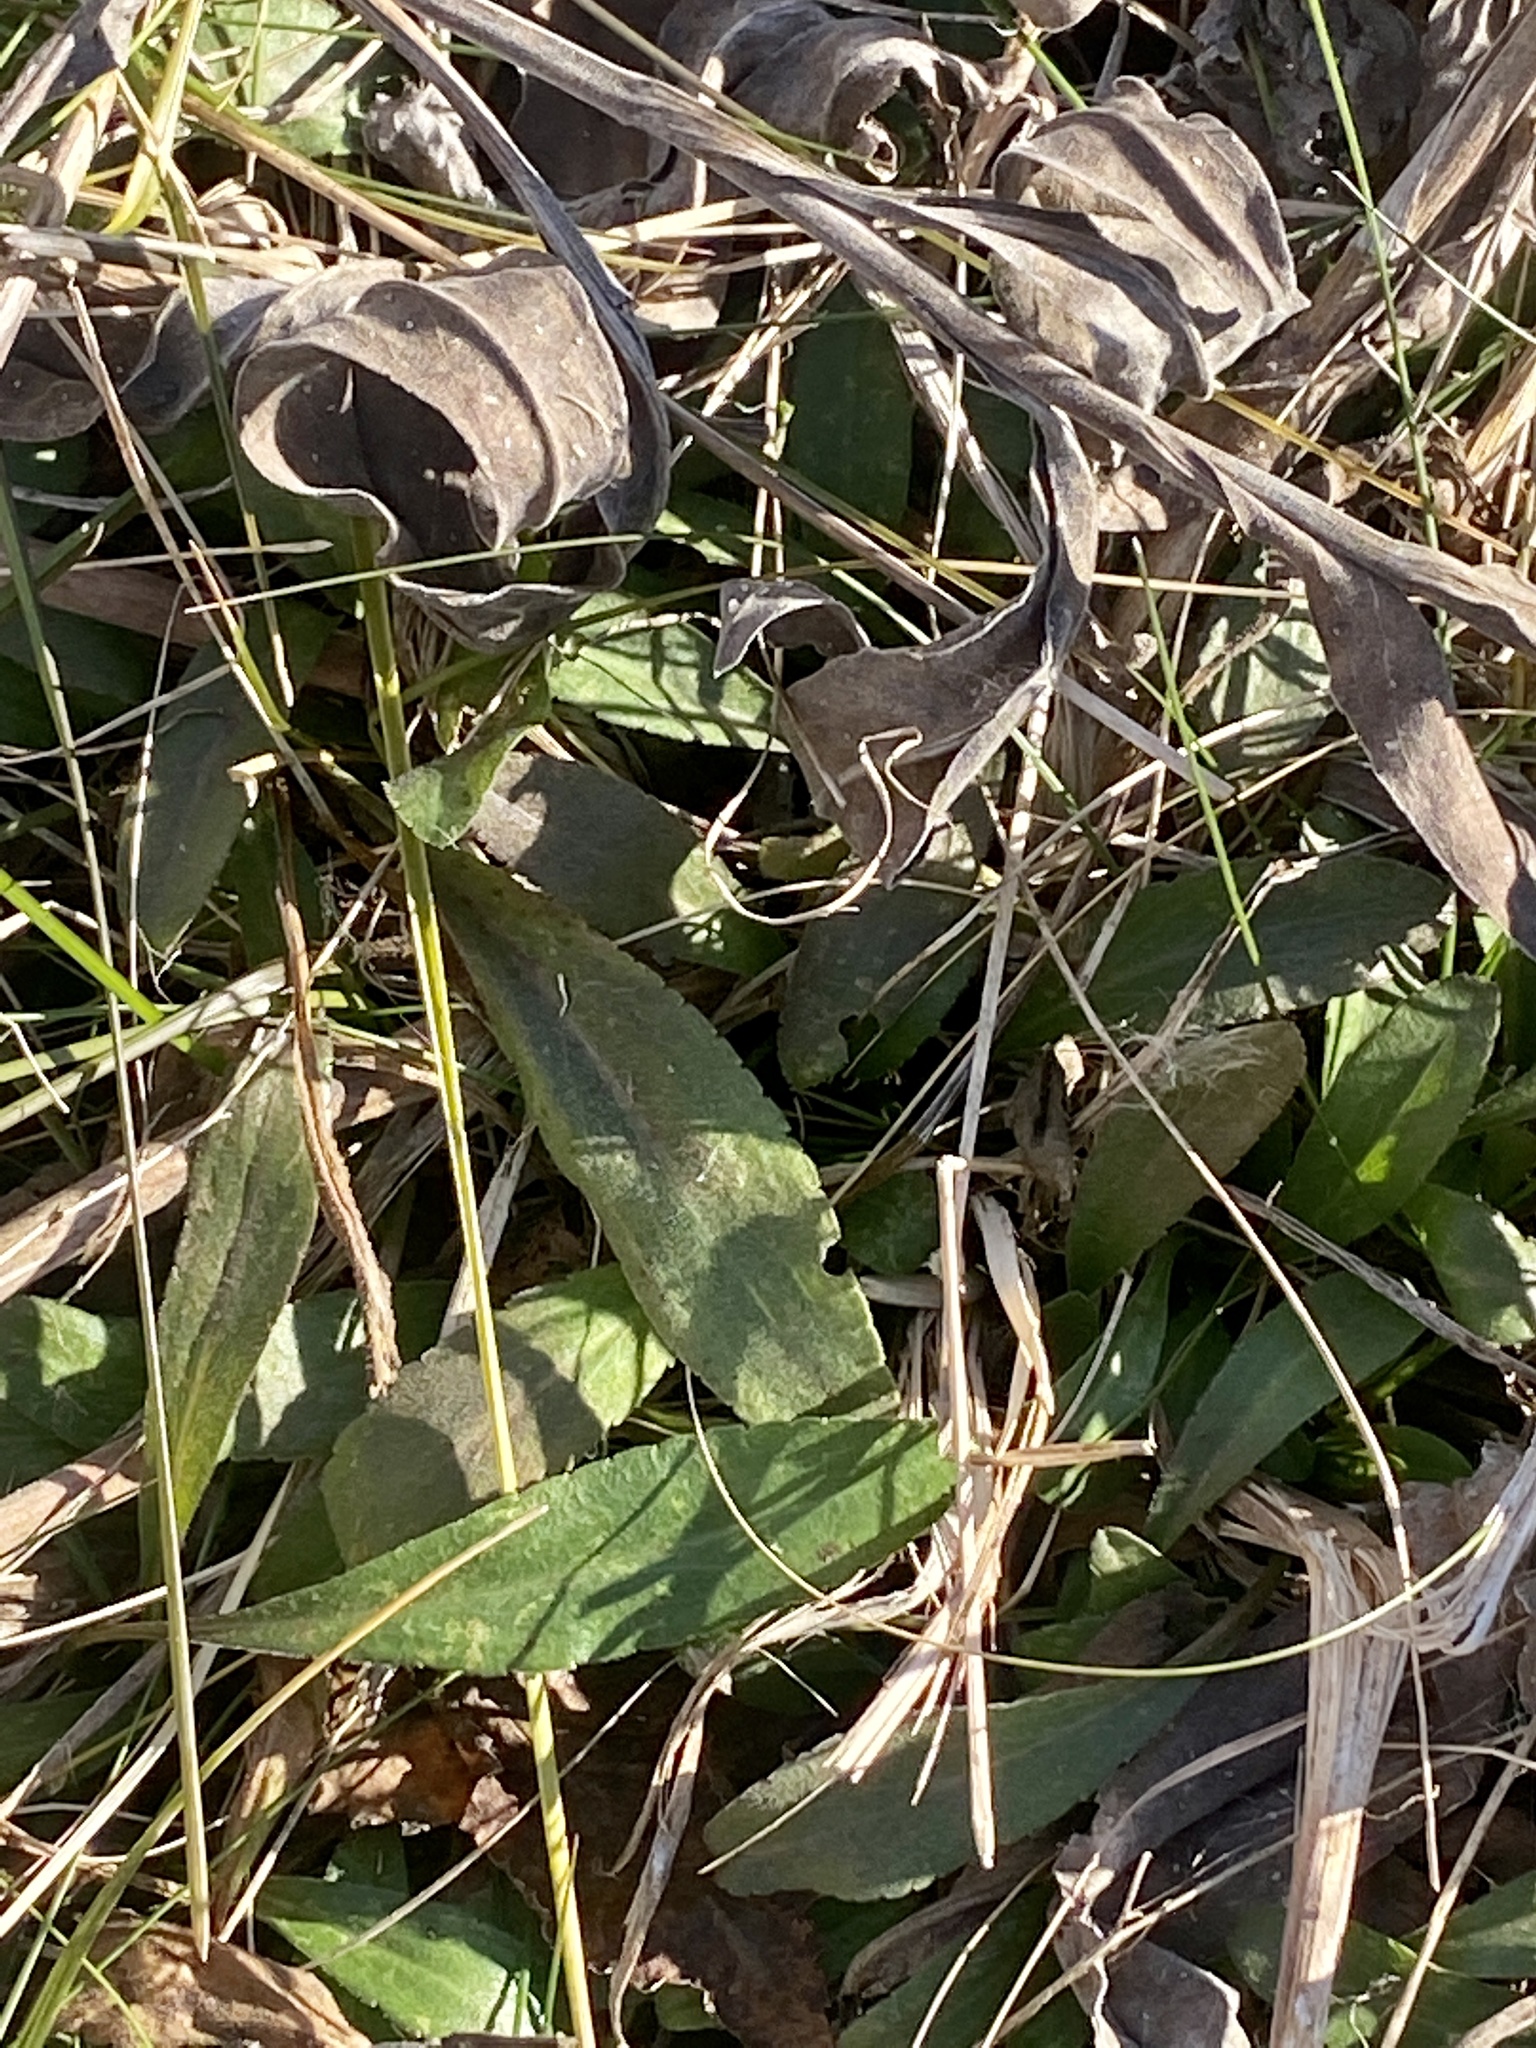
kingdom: Plantae
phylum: Tracheophyta
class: Magnoliopsida
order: Asterales
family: Asteraceae
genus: Solidago
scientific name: Solidago rigida
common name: Rigid goldenrod
